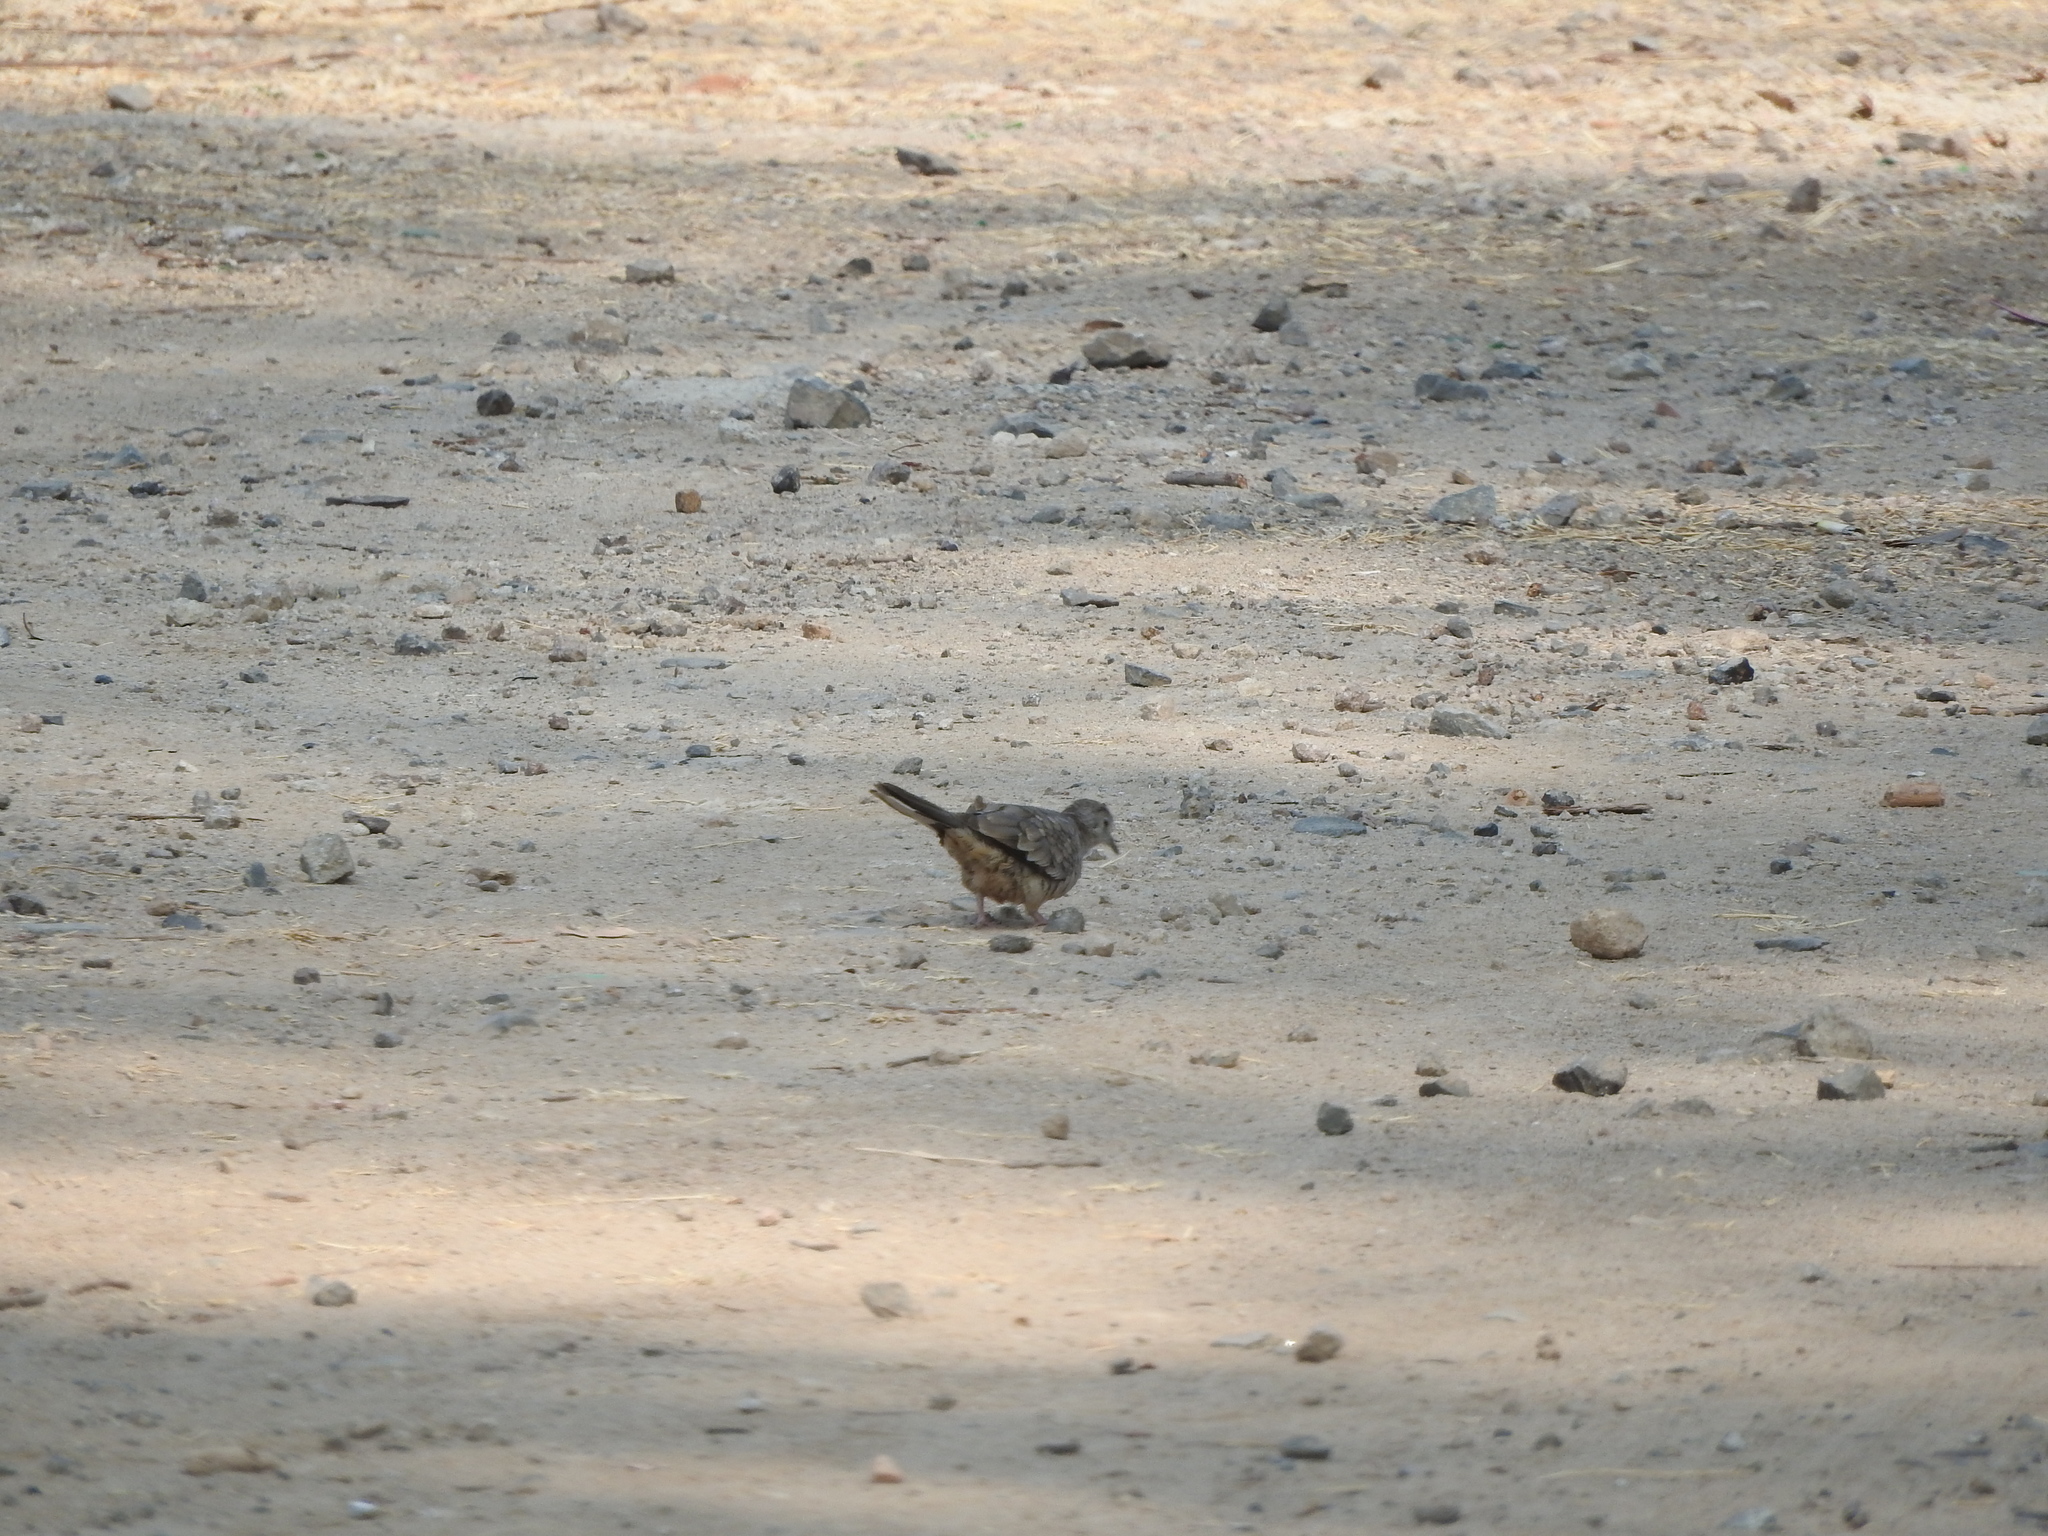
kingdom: Animalia
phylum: Chordata
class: Aves
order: Columbiformes
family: Columbidae
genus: Columbina
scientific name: Columbina inca
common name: Inca dove
